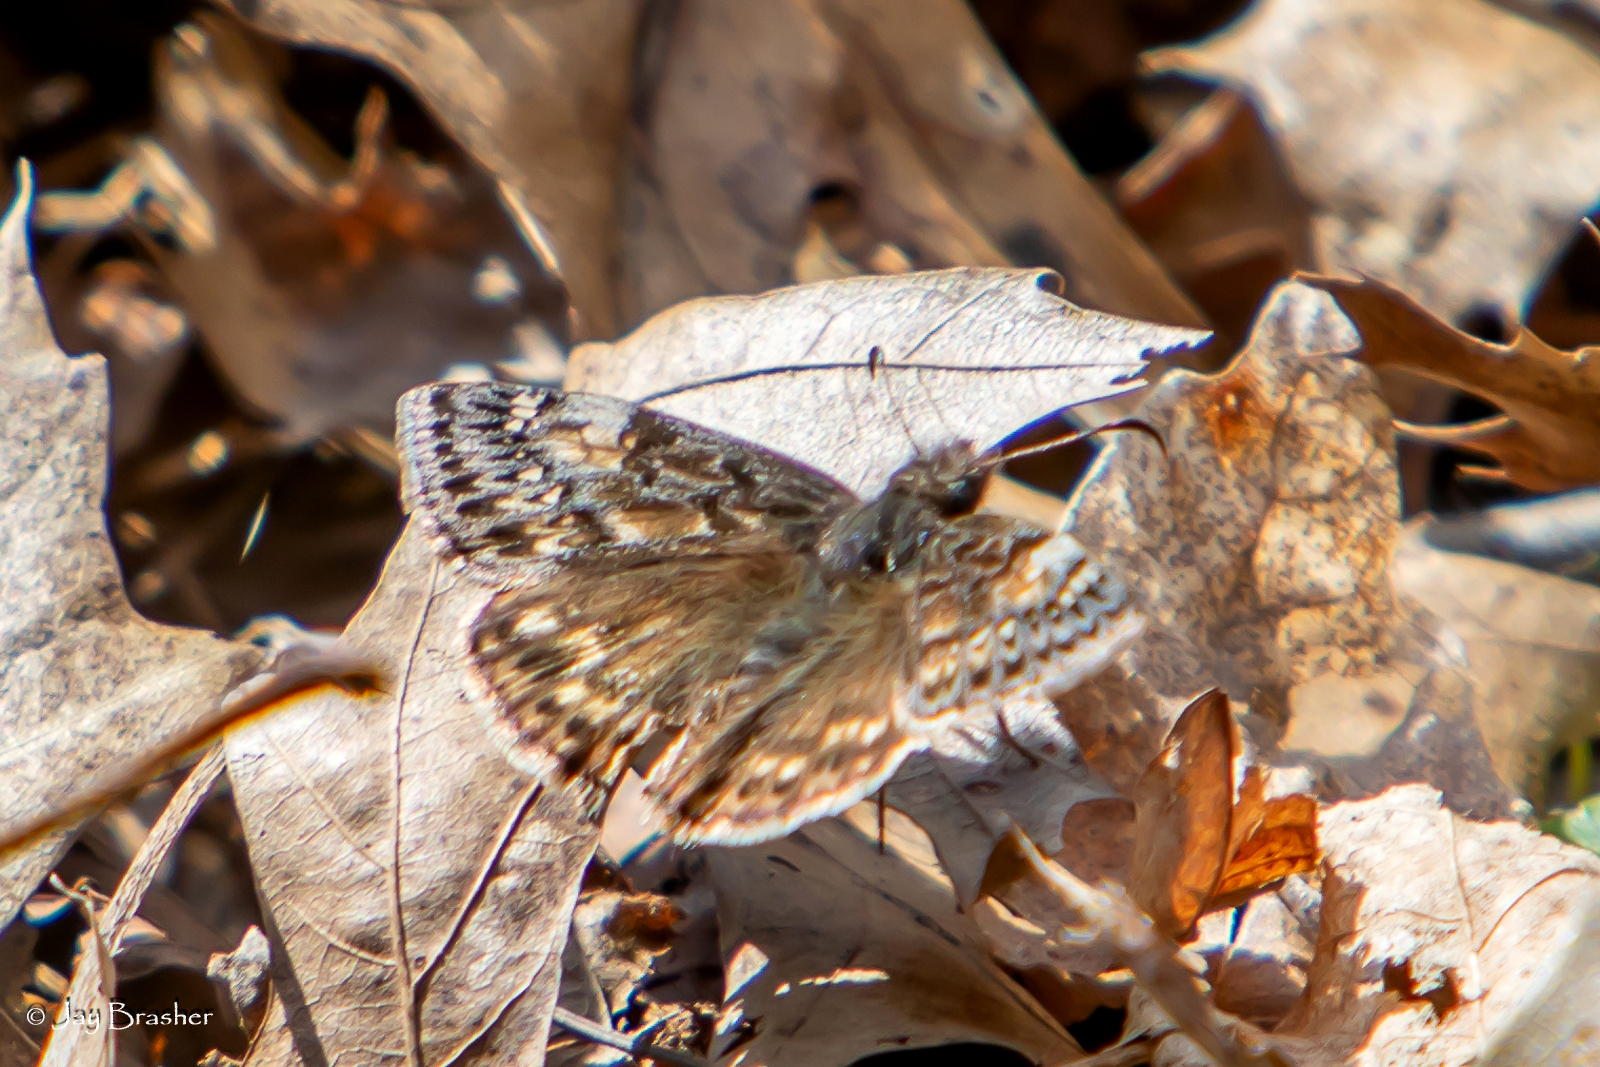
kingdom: Animalia
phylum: Arthropoda
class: Insecta
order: Lepidoptera
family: Hesperiidae
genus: Erynnis
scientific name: Erynnis juvenalis
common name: Juvenal's duskywing
